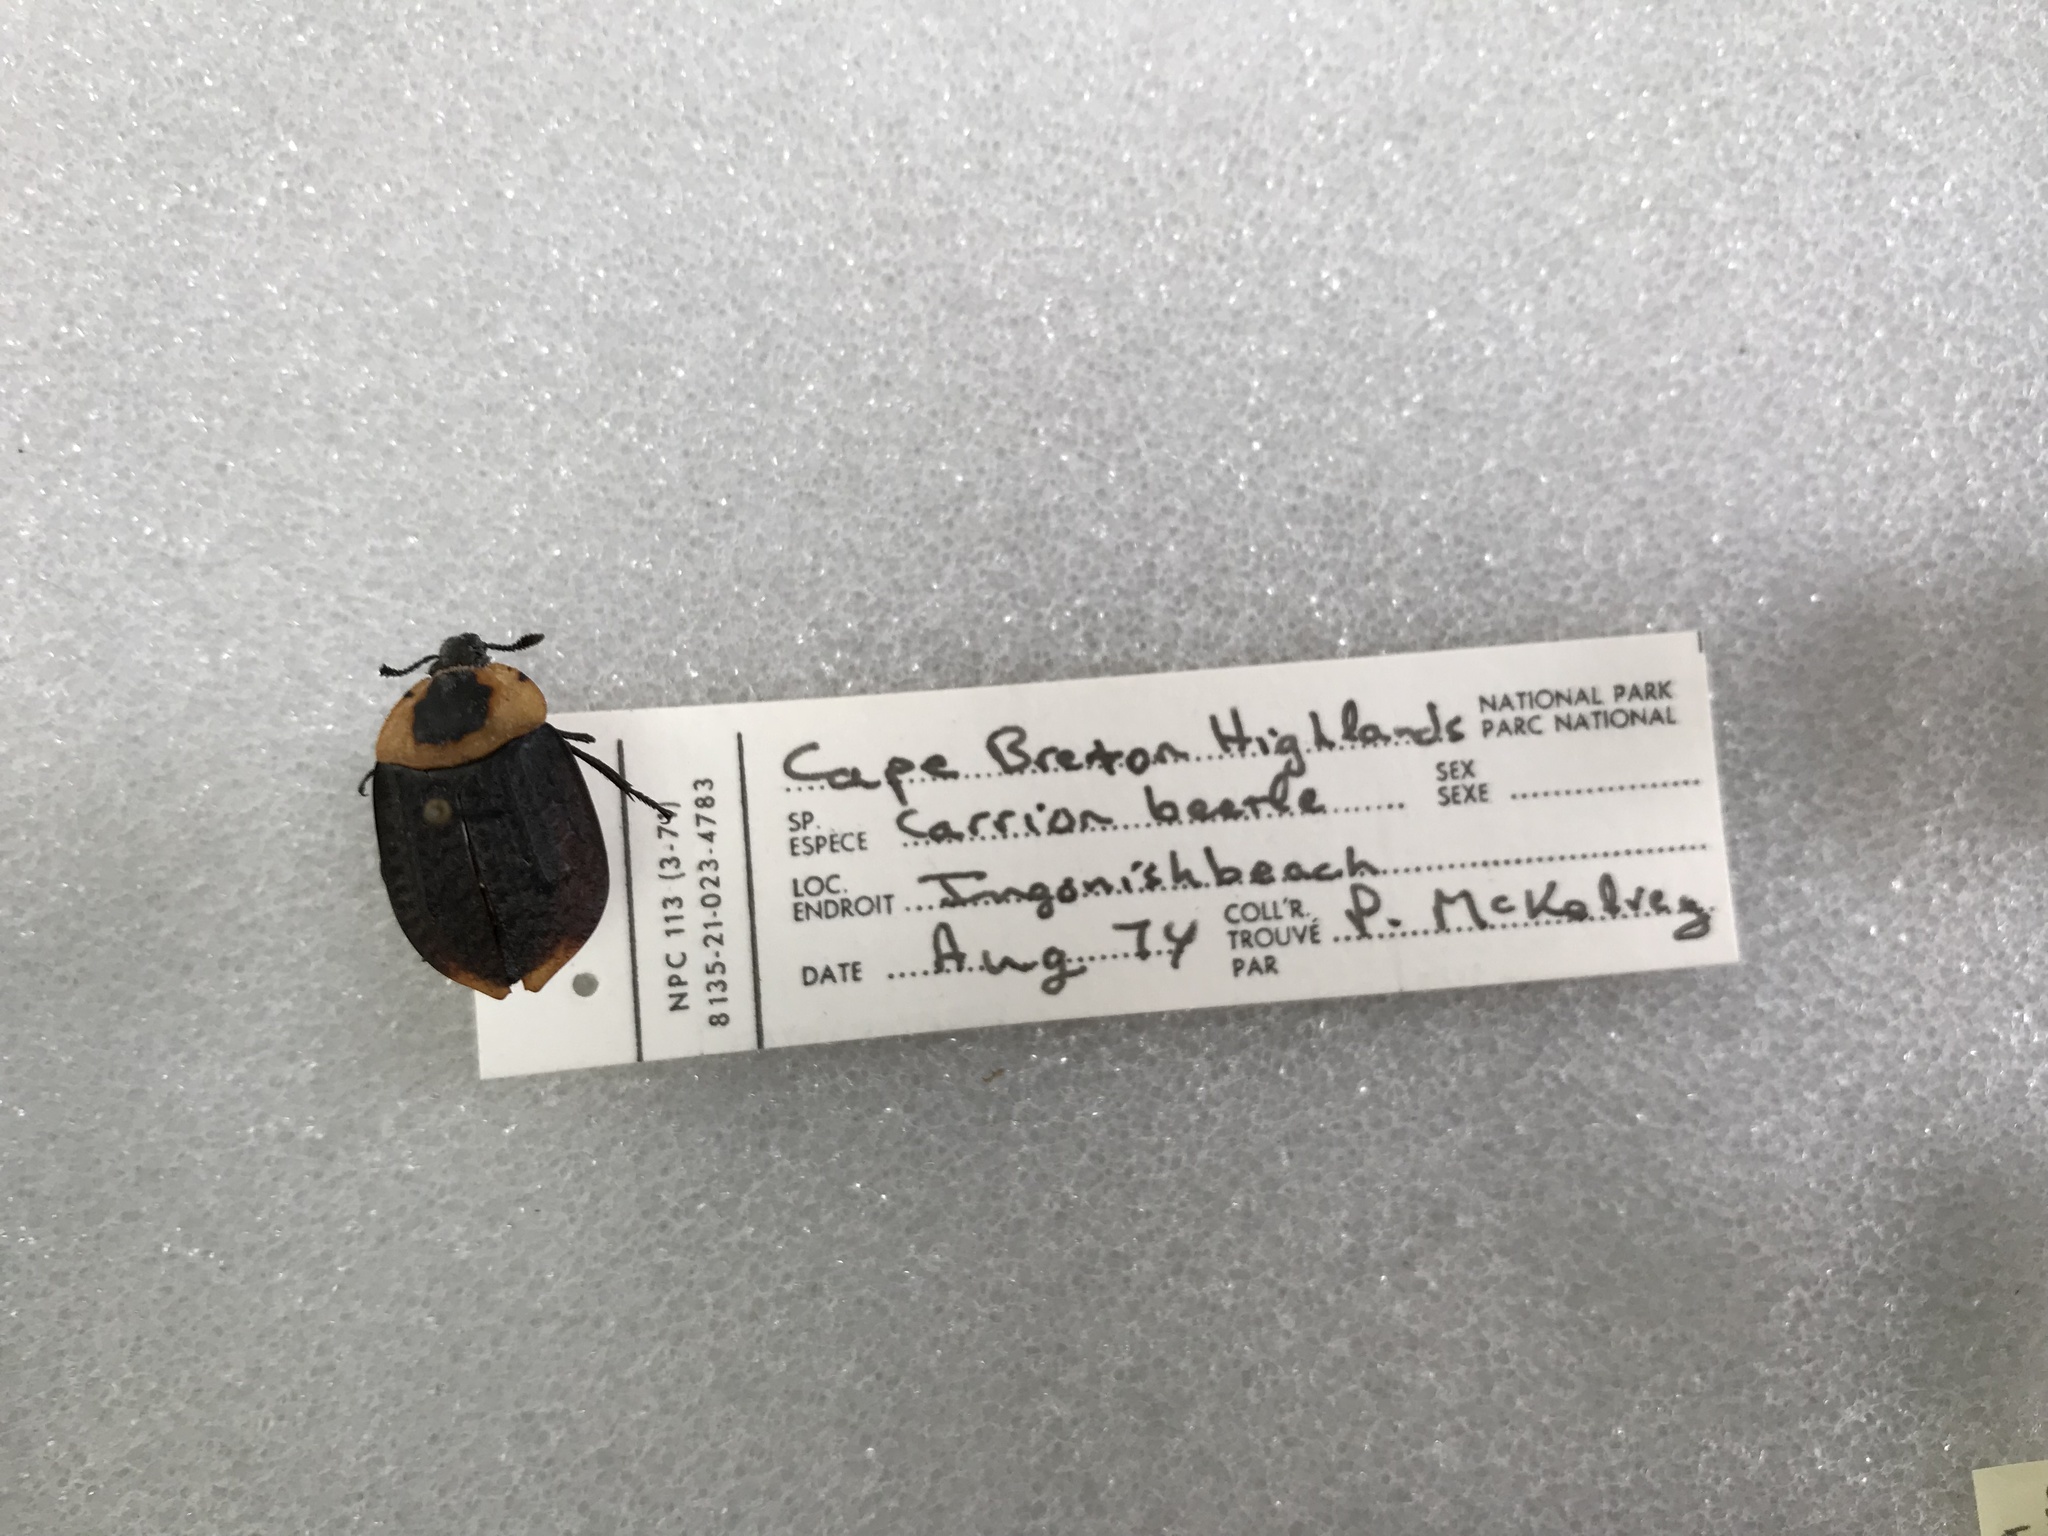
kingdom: Animalia
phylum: Arthropoda
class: Insecta
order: Coleoptera
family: Staphylinidae
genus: Necrophila
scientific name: Necrophila americana
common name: American carrion beetle
